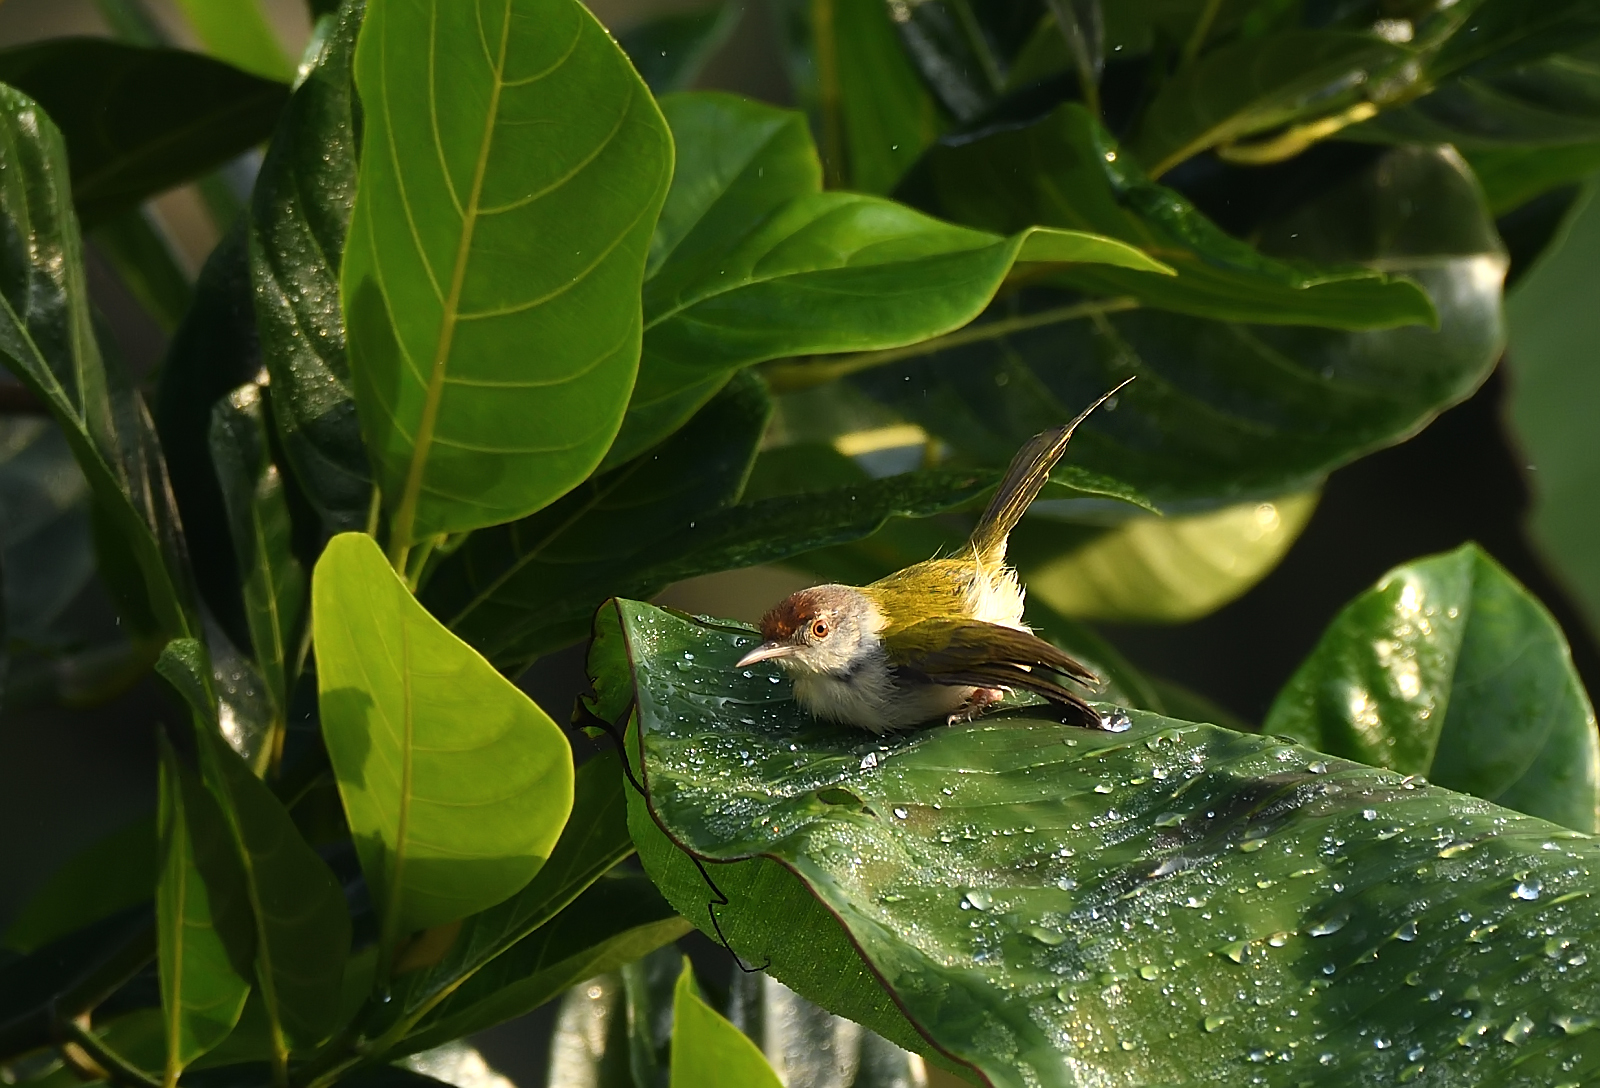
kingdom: Animalia
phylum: Chordata
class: Aves
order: Passeriformes
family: Cisticolidae
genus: Orthotomus
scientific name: Orthotomus sutorius
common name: Common tailorbird
